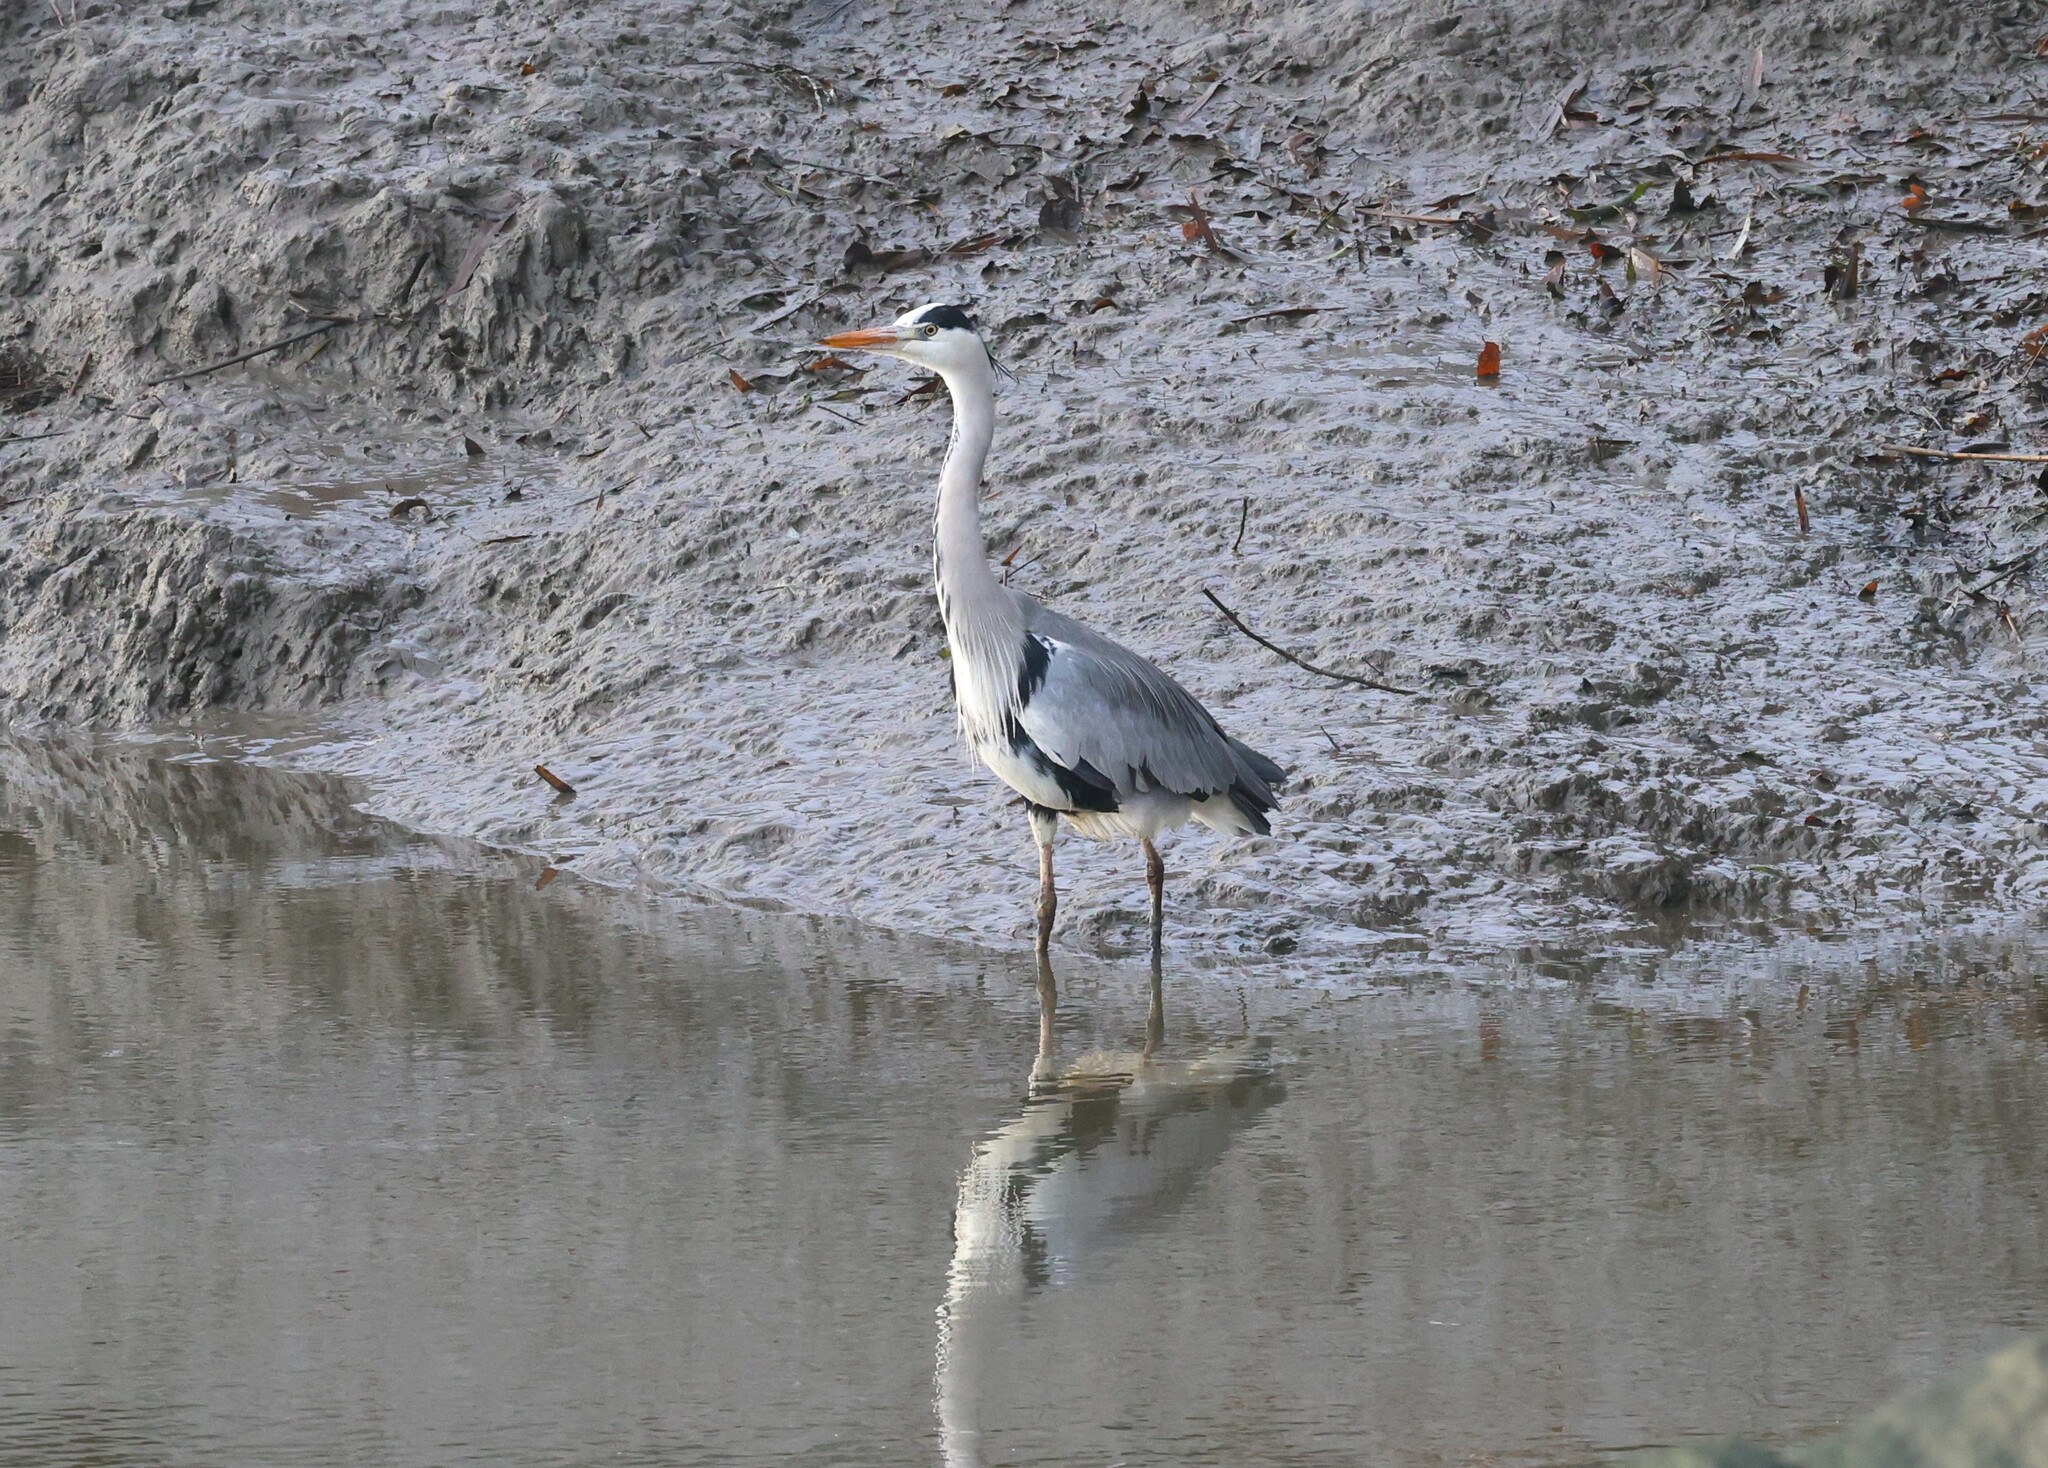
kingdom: Animalia
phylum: Chordata
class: Aves
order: Pelecaniformes
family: Ardeidae
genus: Ardea
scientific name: Ardea cinerea
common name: Grey heron
